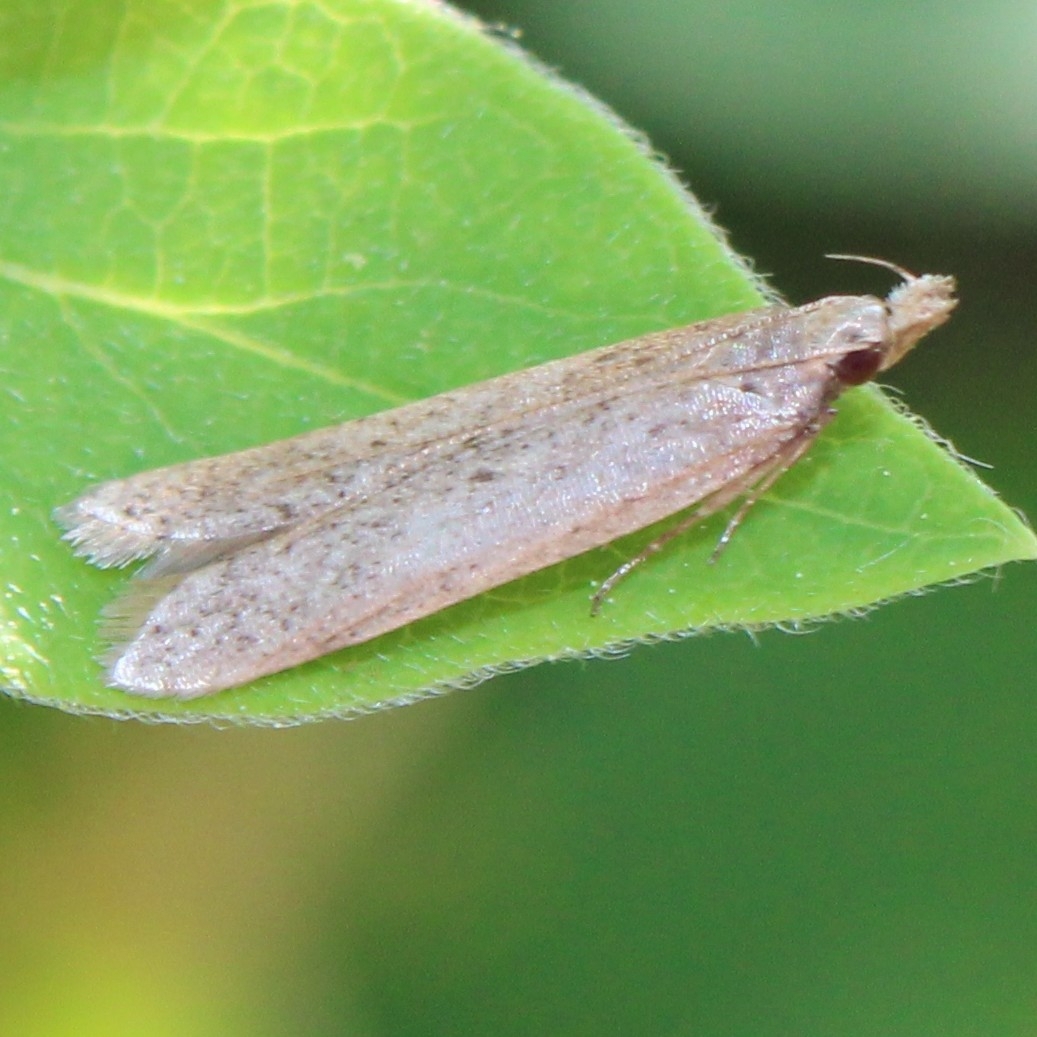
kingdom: Animalia
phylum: Arthropoda
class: Insecta
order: Lepidoptera
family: Gelechiidae
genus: Dichomeris
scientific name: Dichomeris ligulella
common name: Moth
